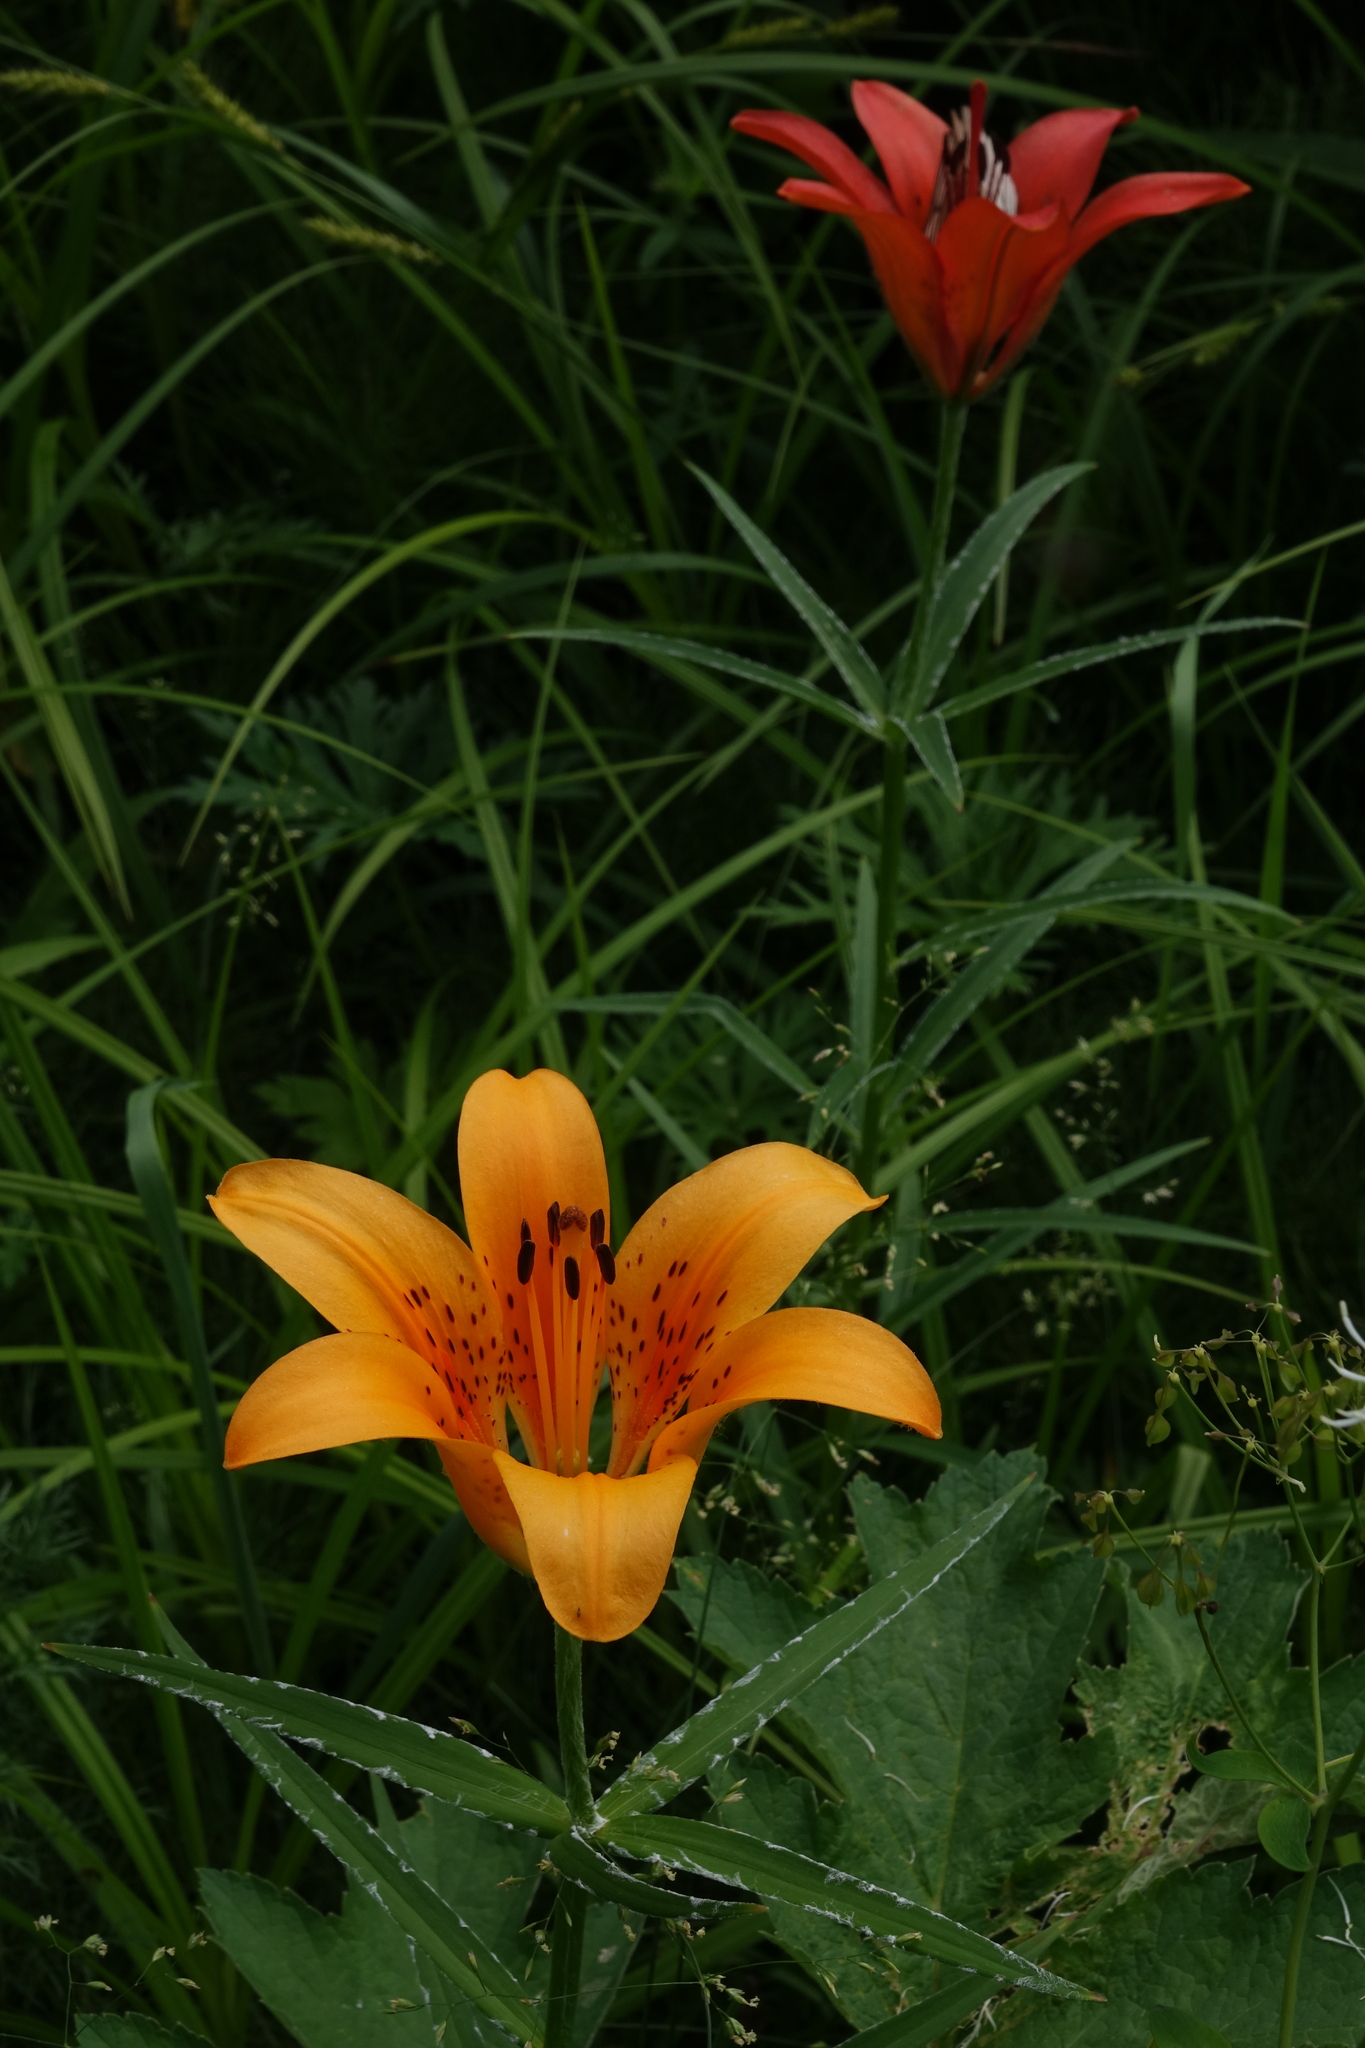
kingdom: Plantae
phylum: Tracheophyta
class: Liliopsida
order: Liliales
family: Liliaceae
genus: Lilium
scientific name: Lilium pensylvanicum
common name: Candlestick lily
